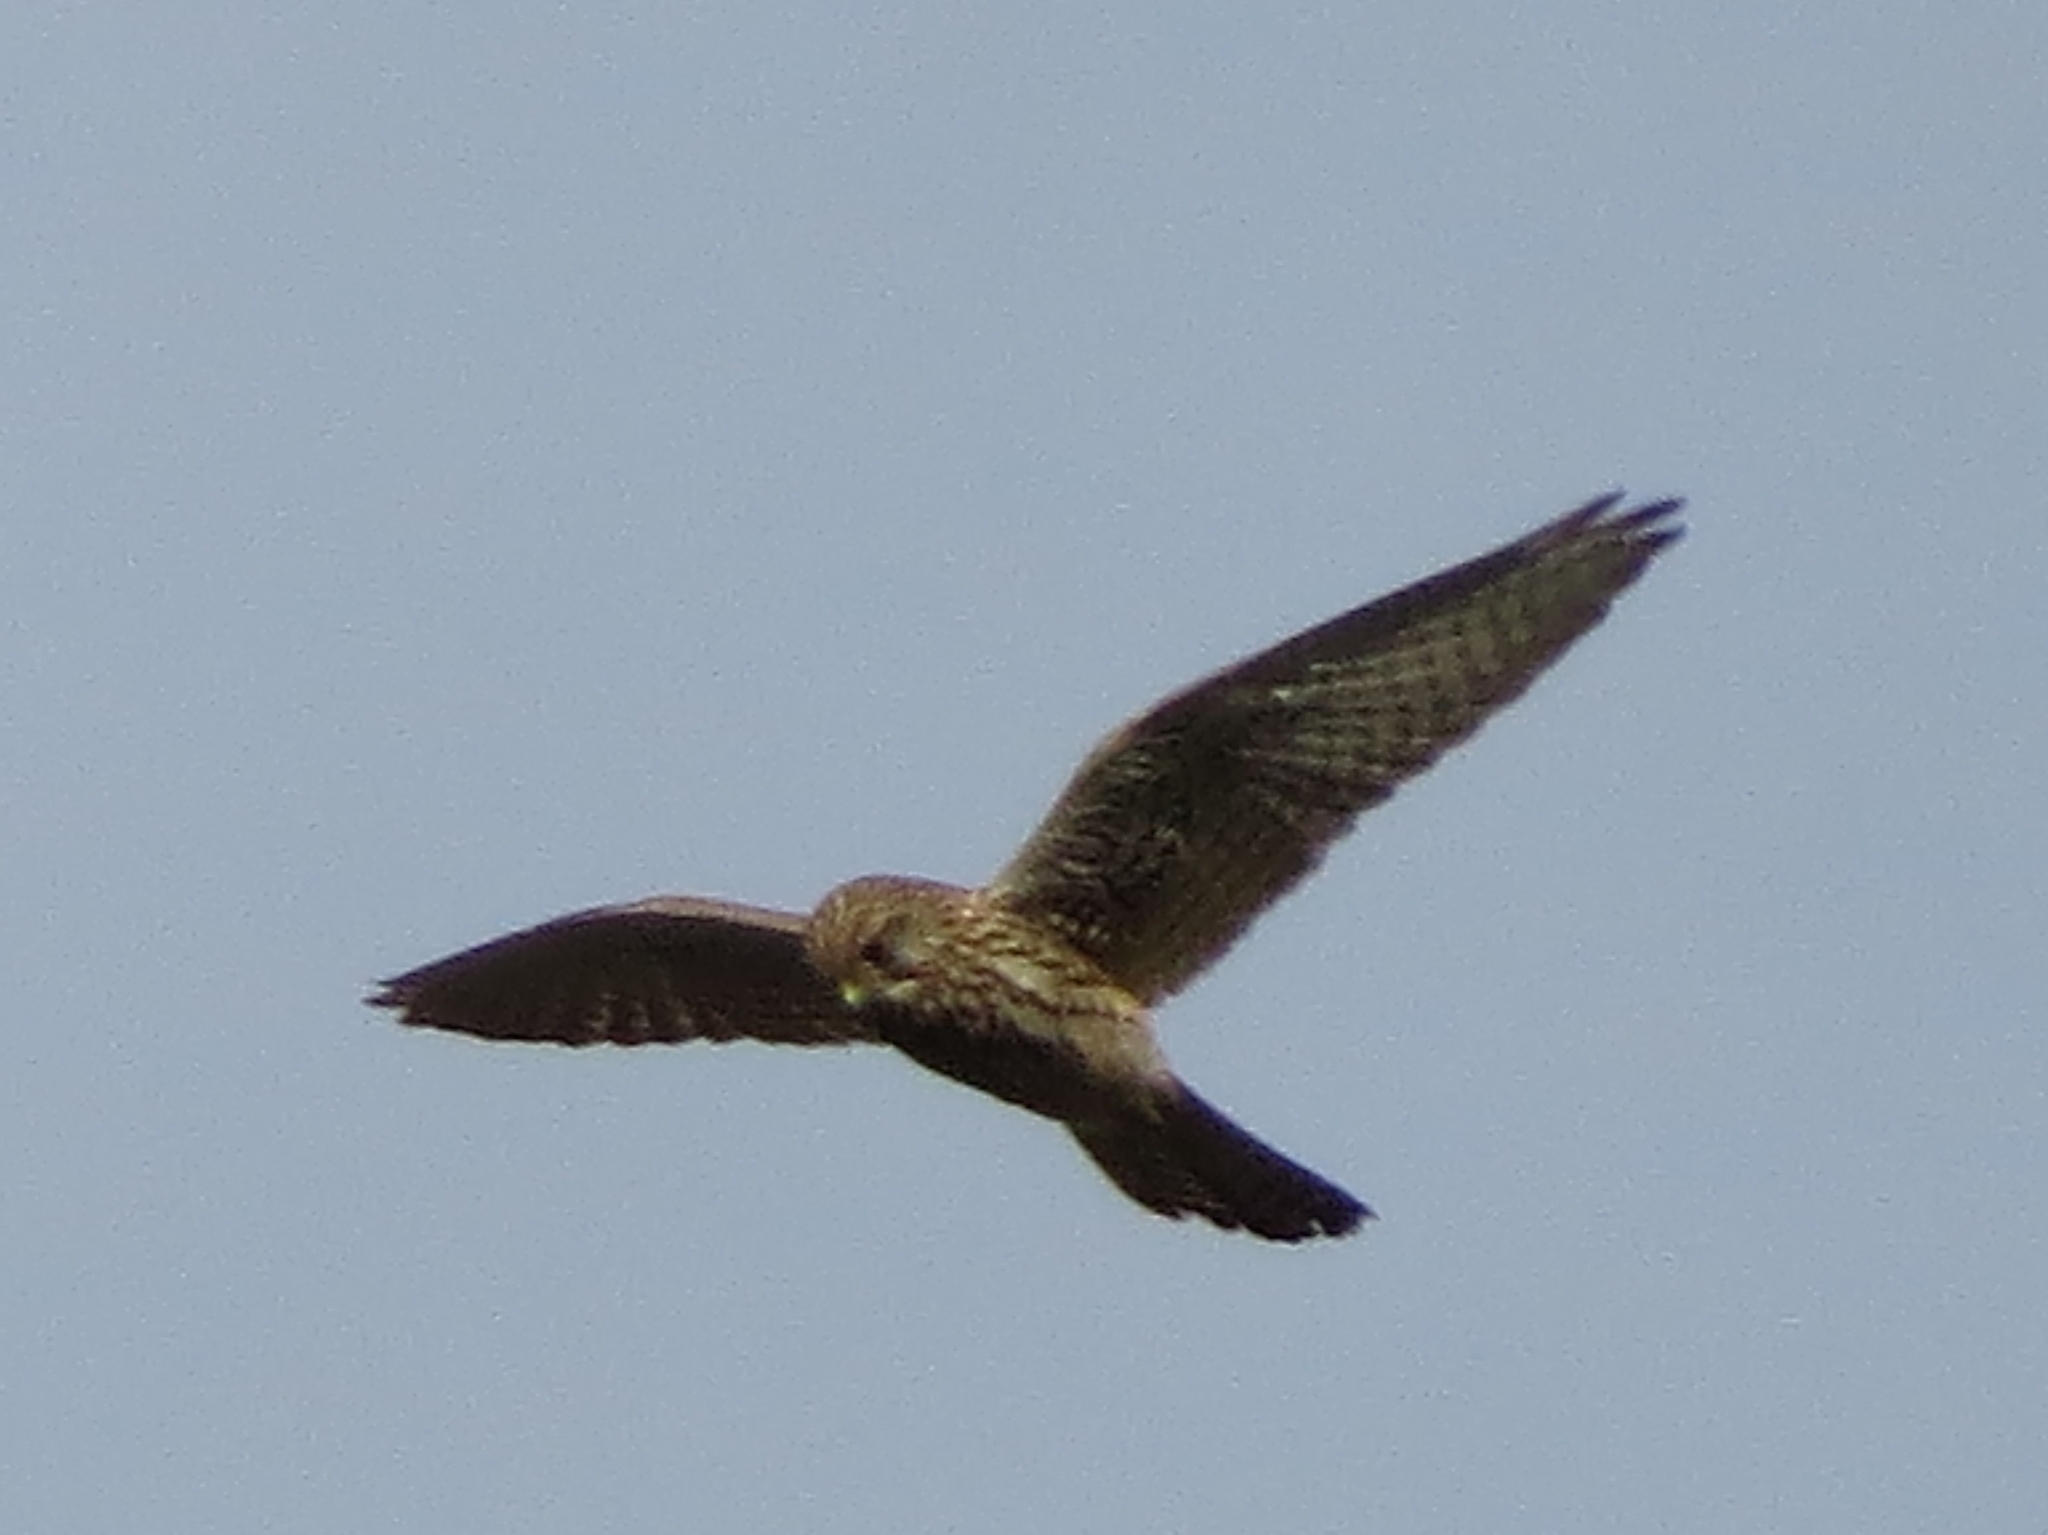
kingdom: Animalia
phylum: Chordata
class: Aves
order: Falconiformes
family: Falconidae
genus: Falco
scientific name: Falco tinnunculus
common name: Common kestrel
